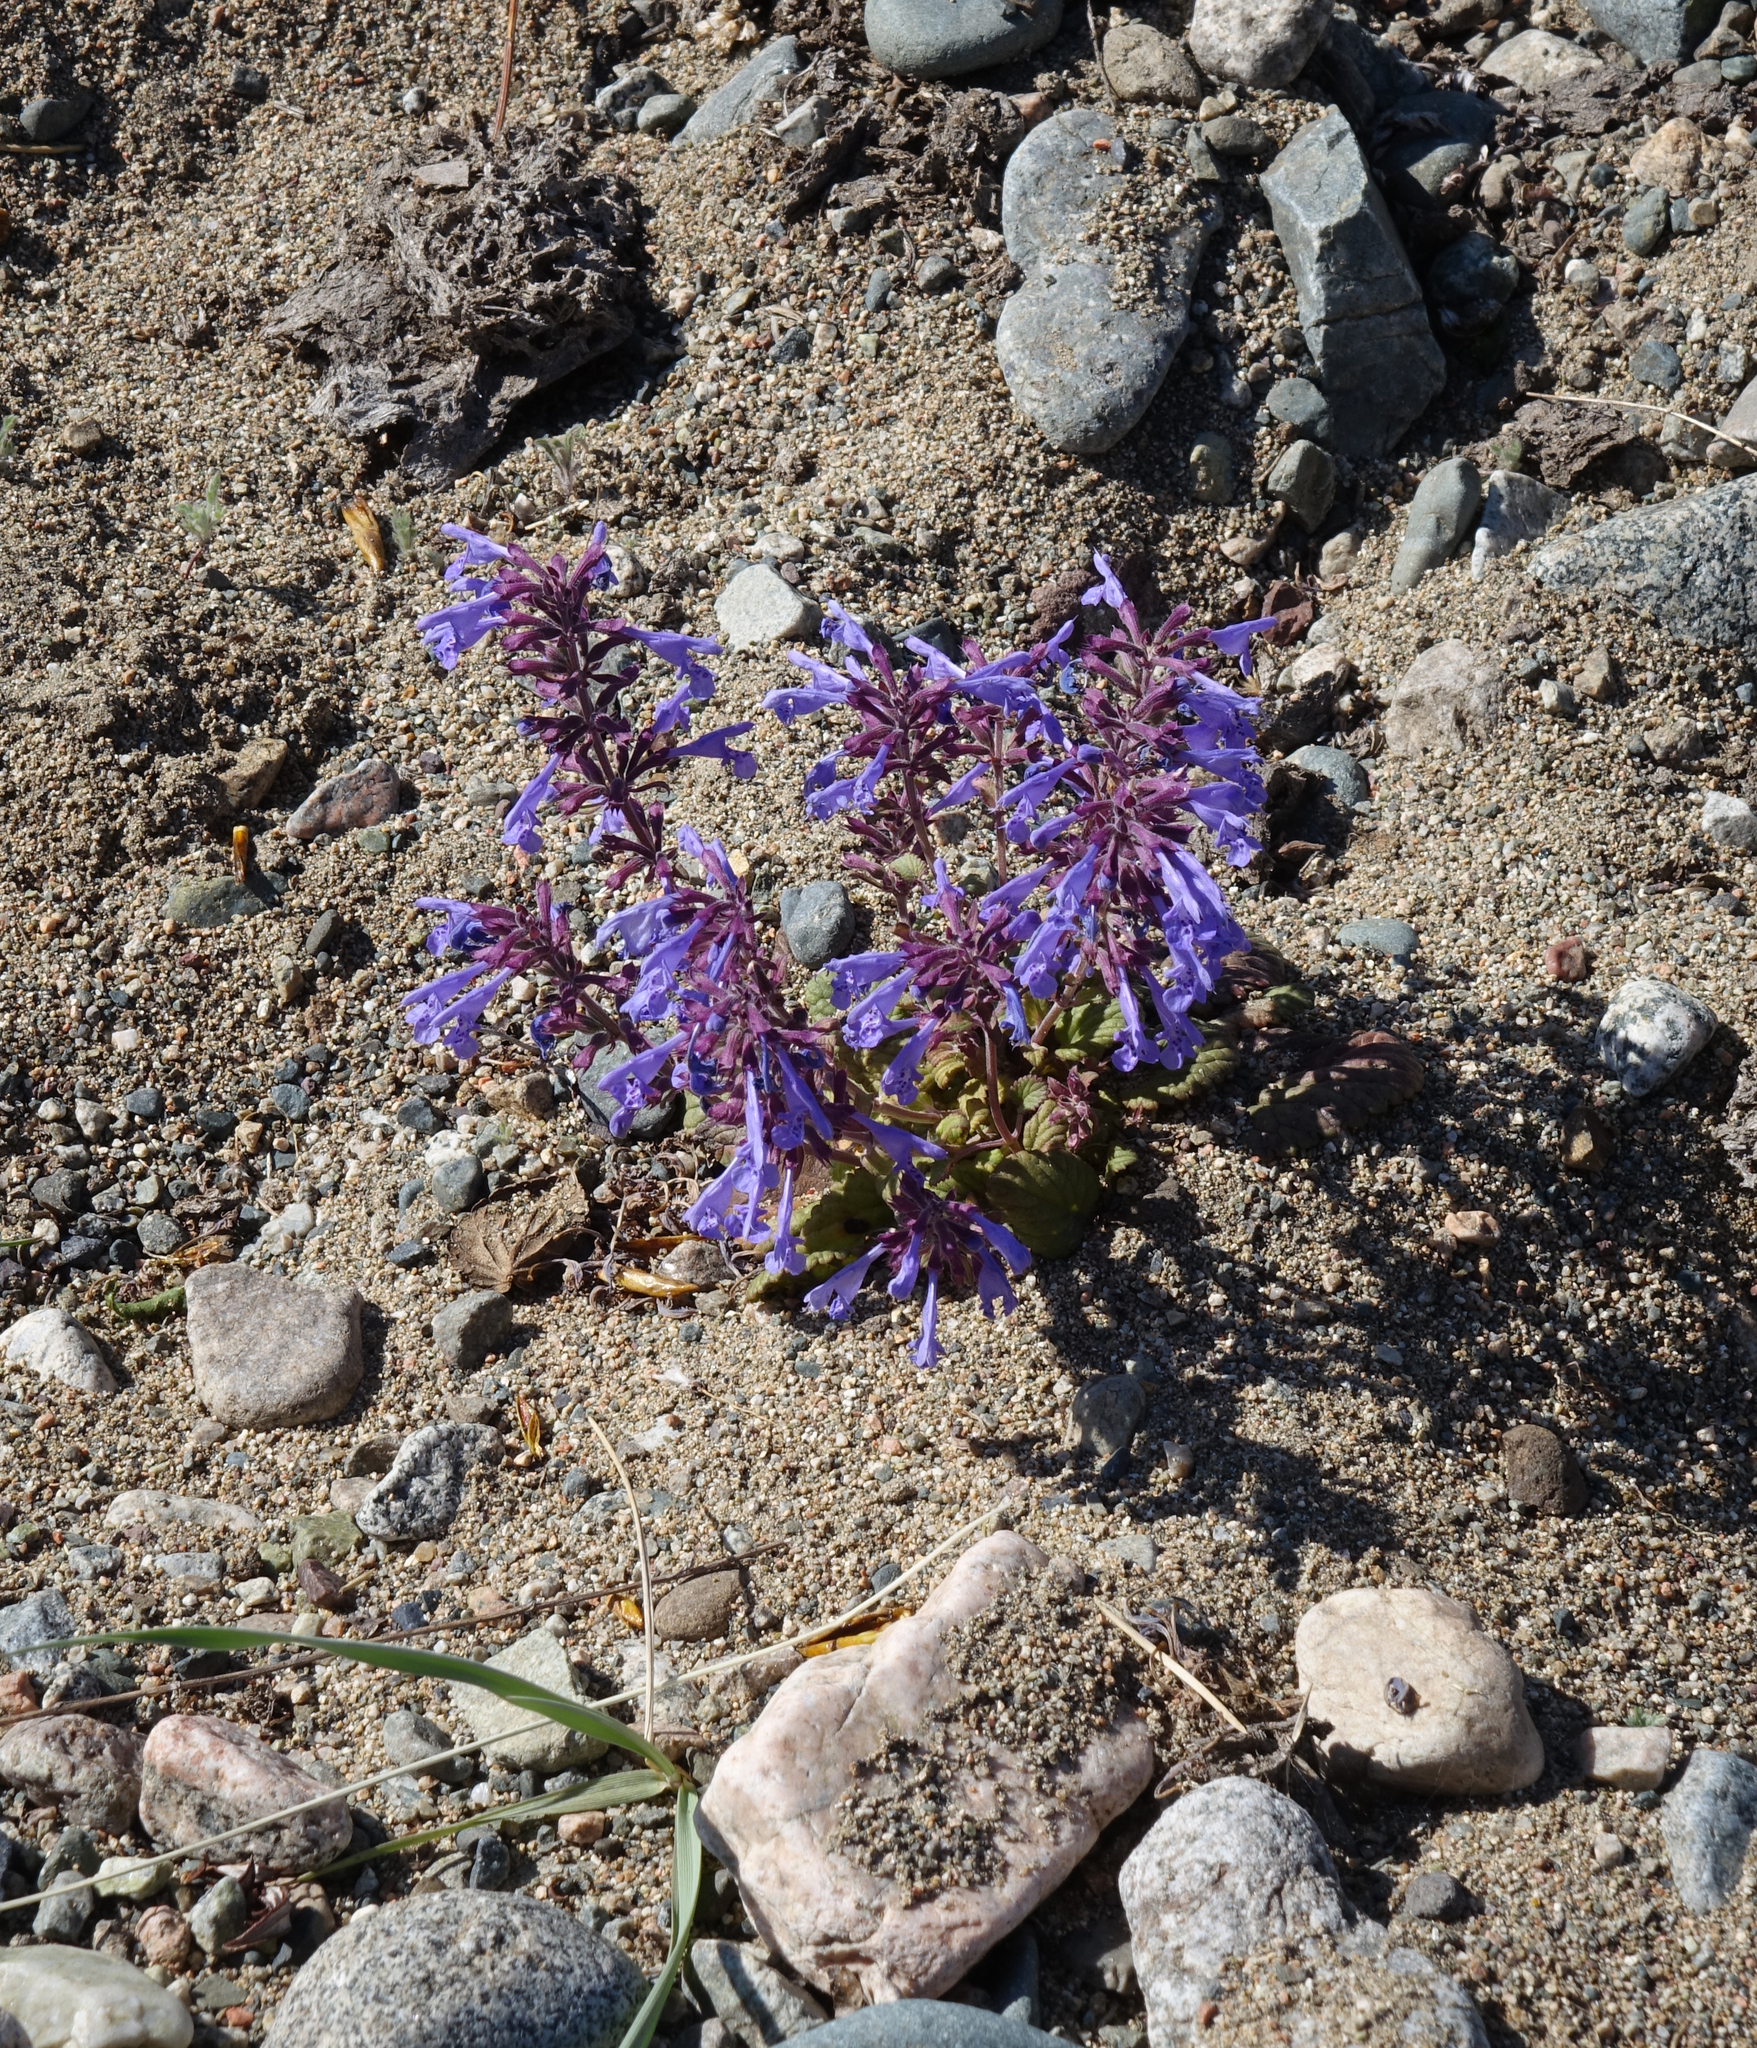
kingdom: Plantae
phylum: Tracheophyta
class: Magnoliopsida
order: Lamiales
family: Lamiaceae
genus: Dracocephalum
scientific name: Dracocephalum nutans
